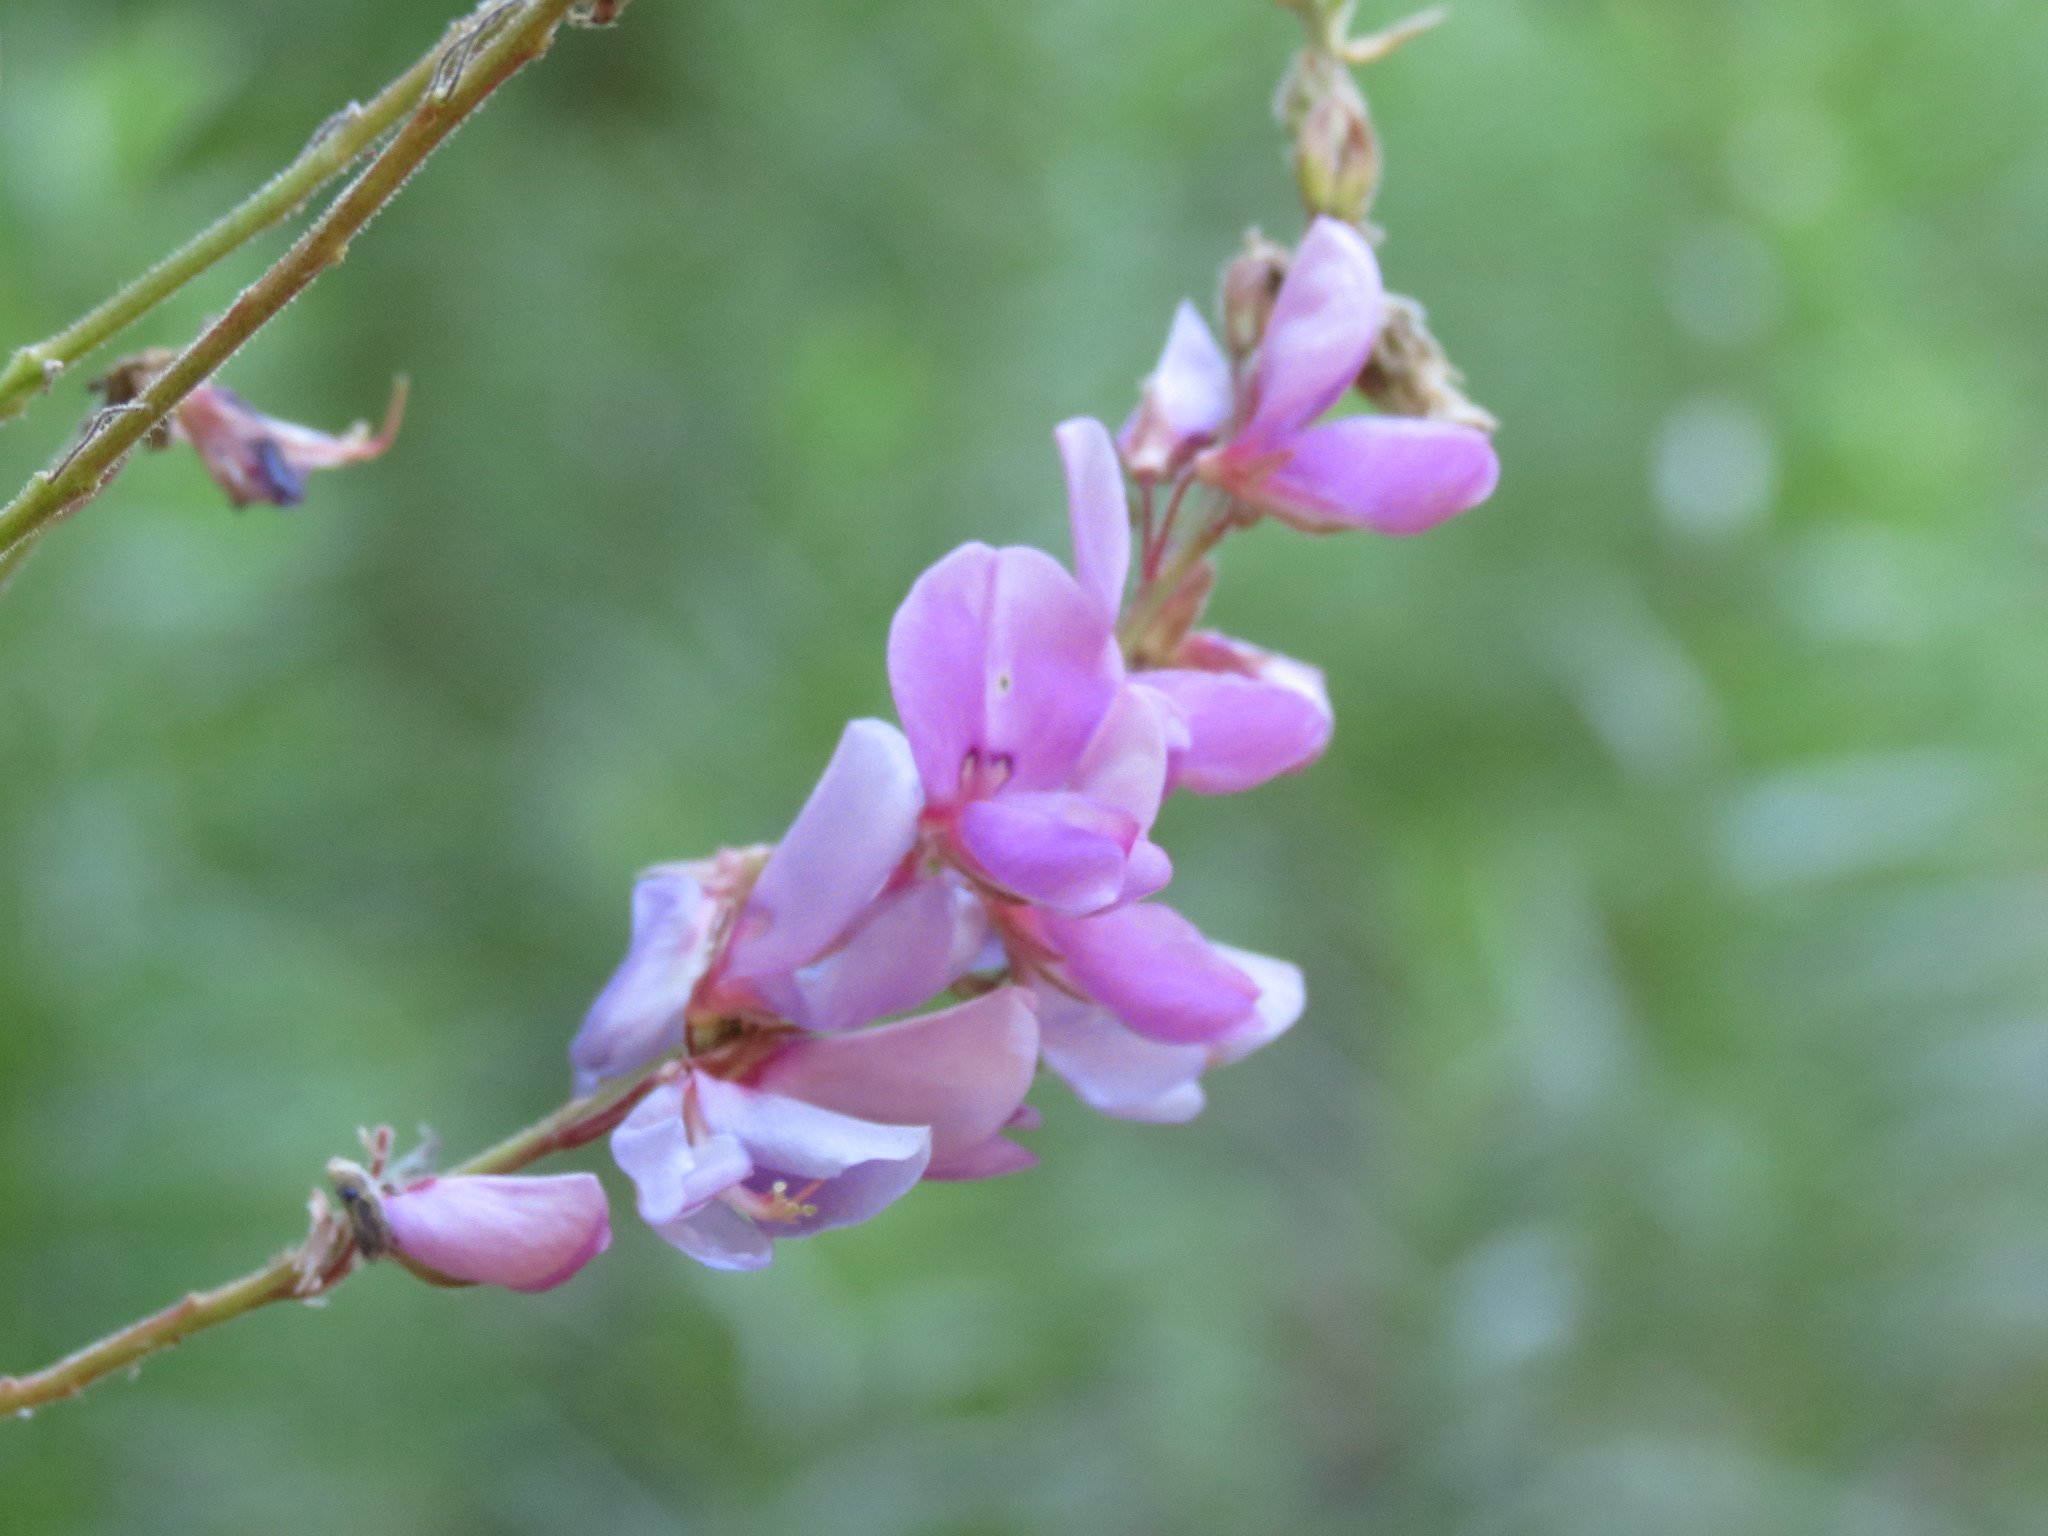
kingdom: Plantae
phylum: Tracheophyta
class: Magnoliopsida
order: Fabales
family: Fabaceae
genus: Desmodium
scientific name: Desmodium canadense
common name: Canada tick-trefoil
